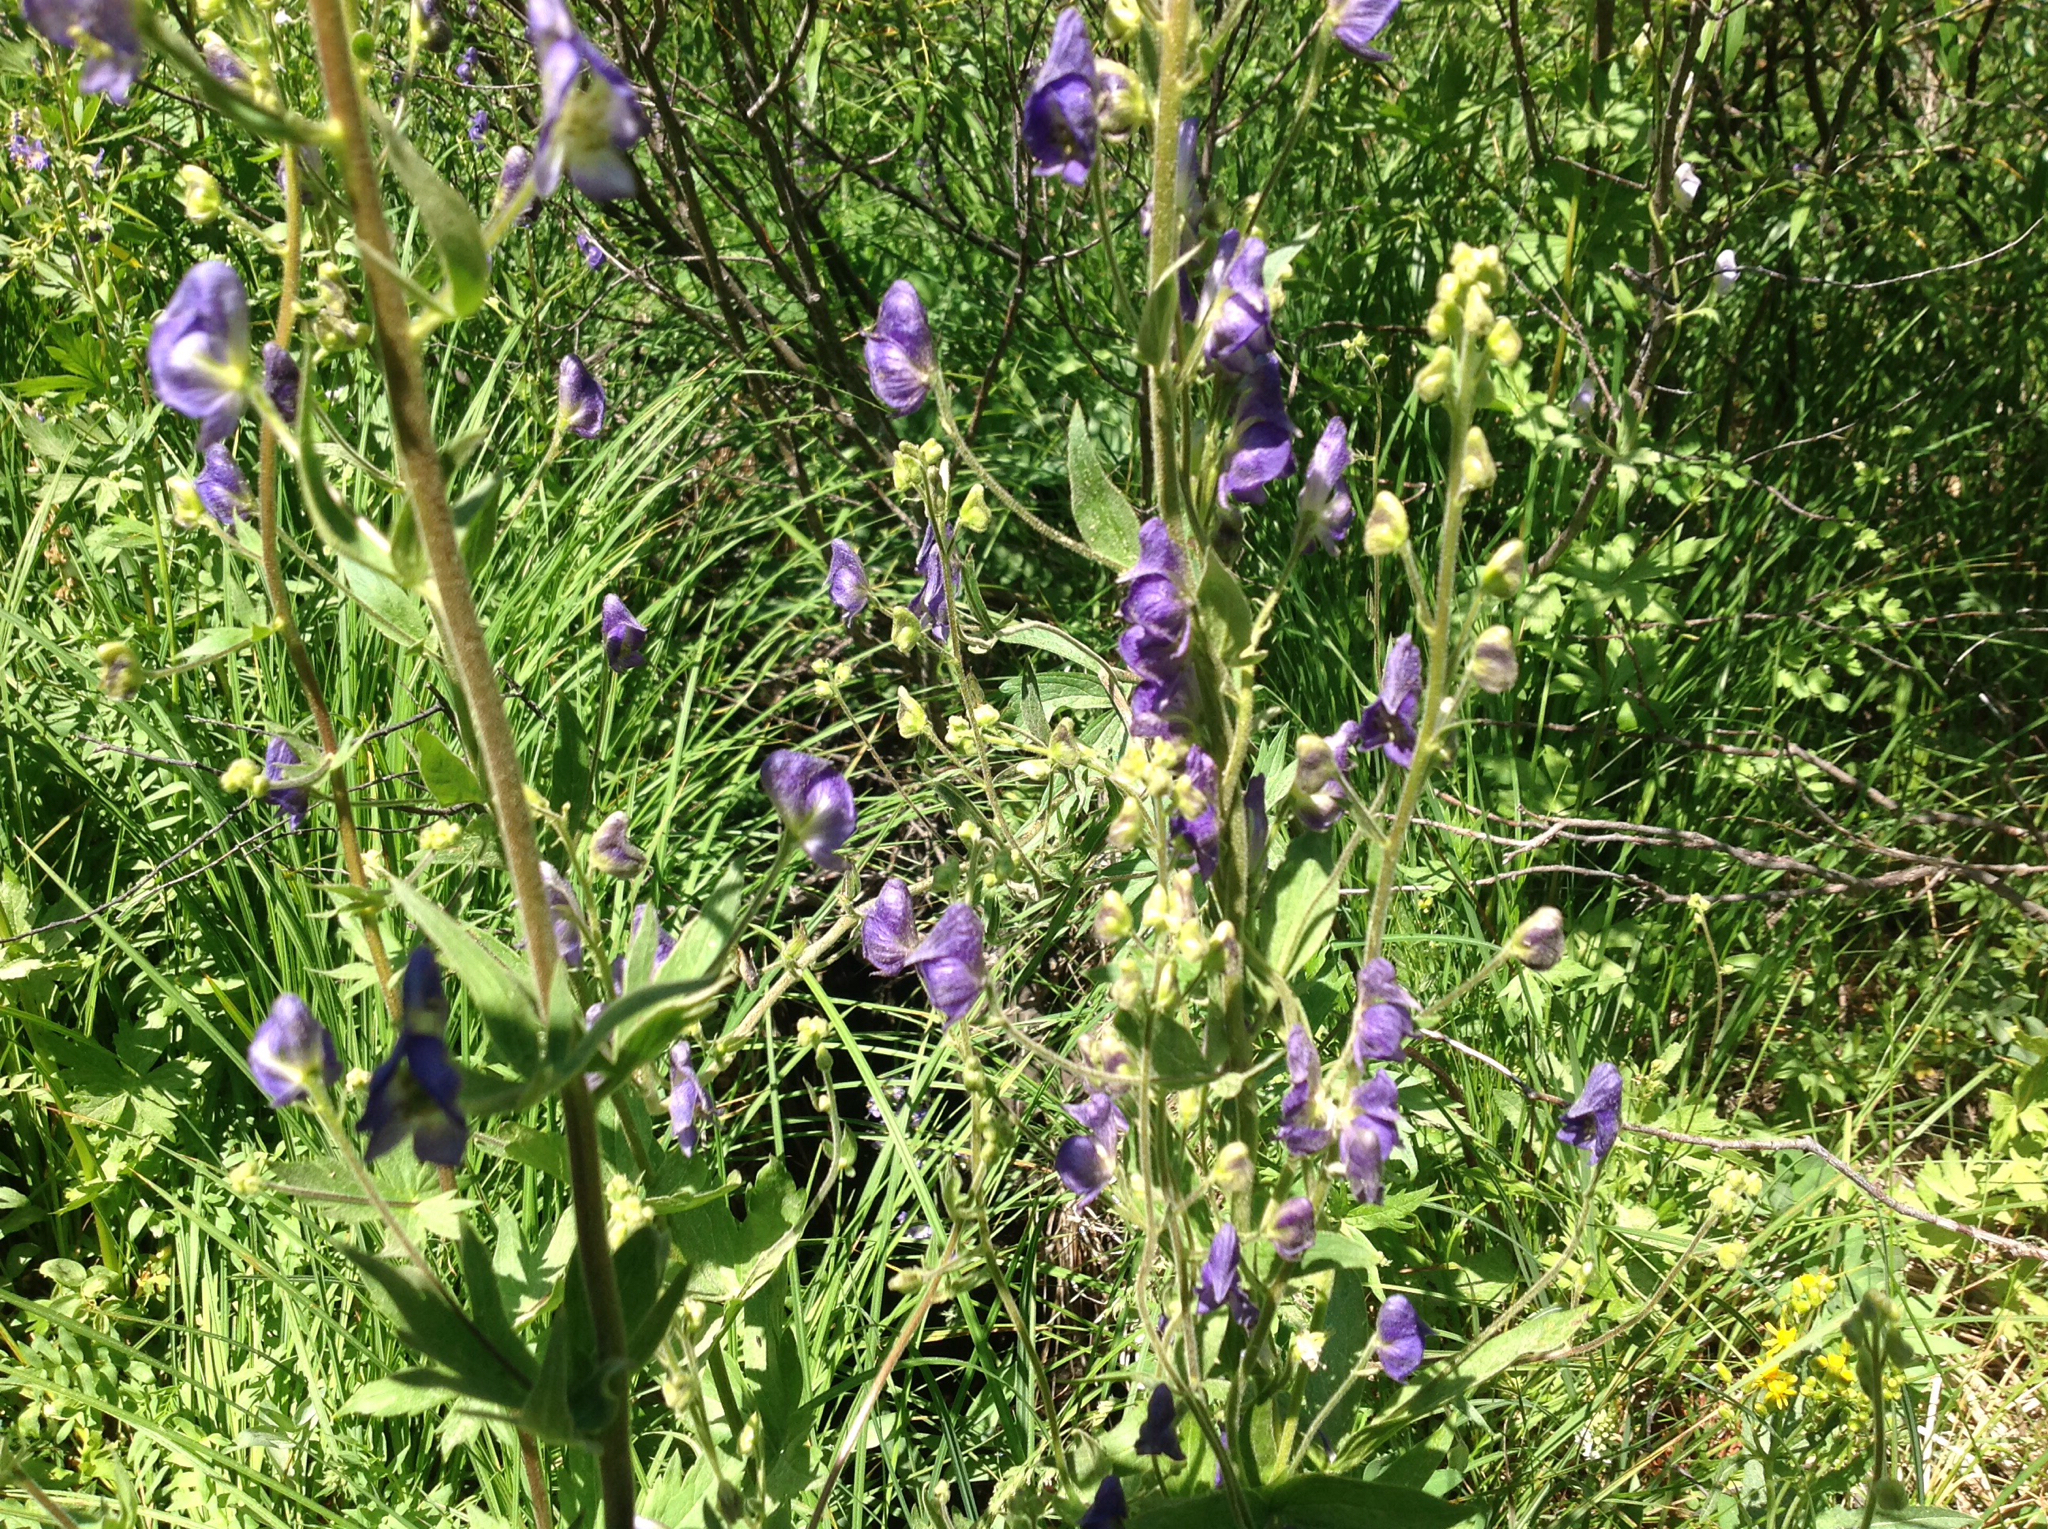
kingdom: Plantae
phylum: Tracheophyta
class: Magnoliopsida
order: Ranunculales
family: Ranunculaceae
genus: Aconitum
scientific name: Aconitum columbianum
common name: Columbia aconite
